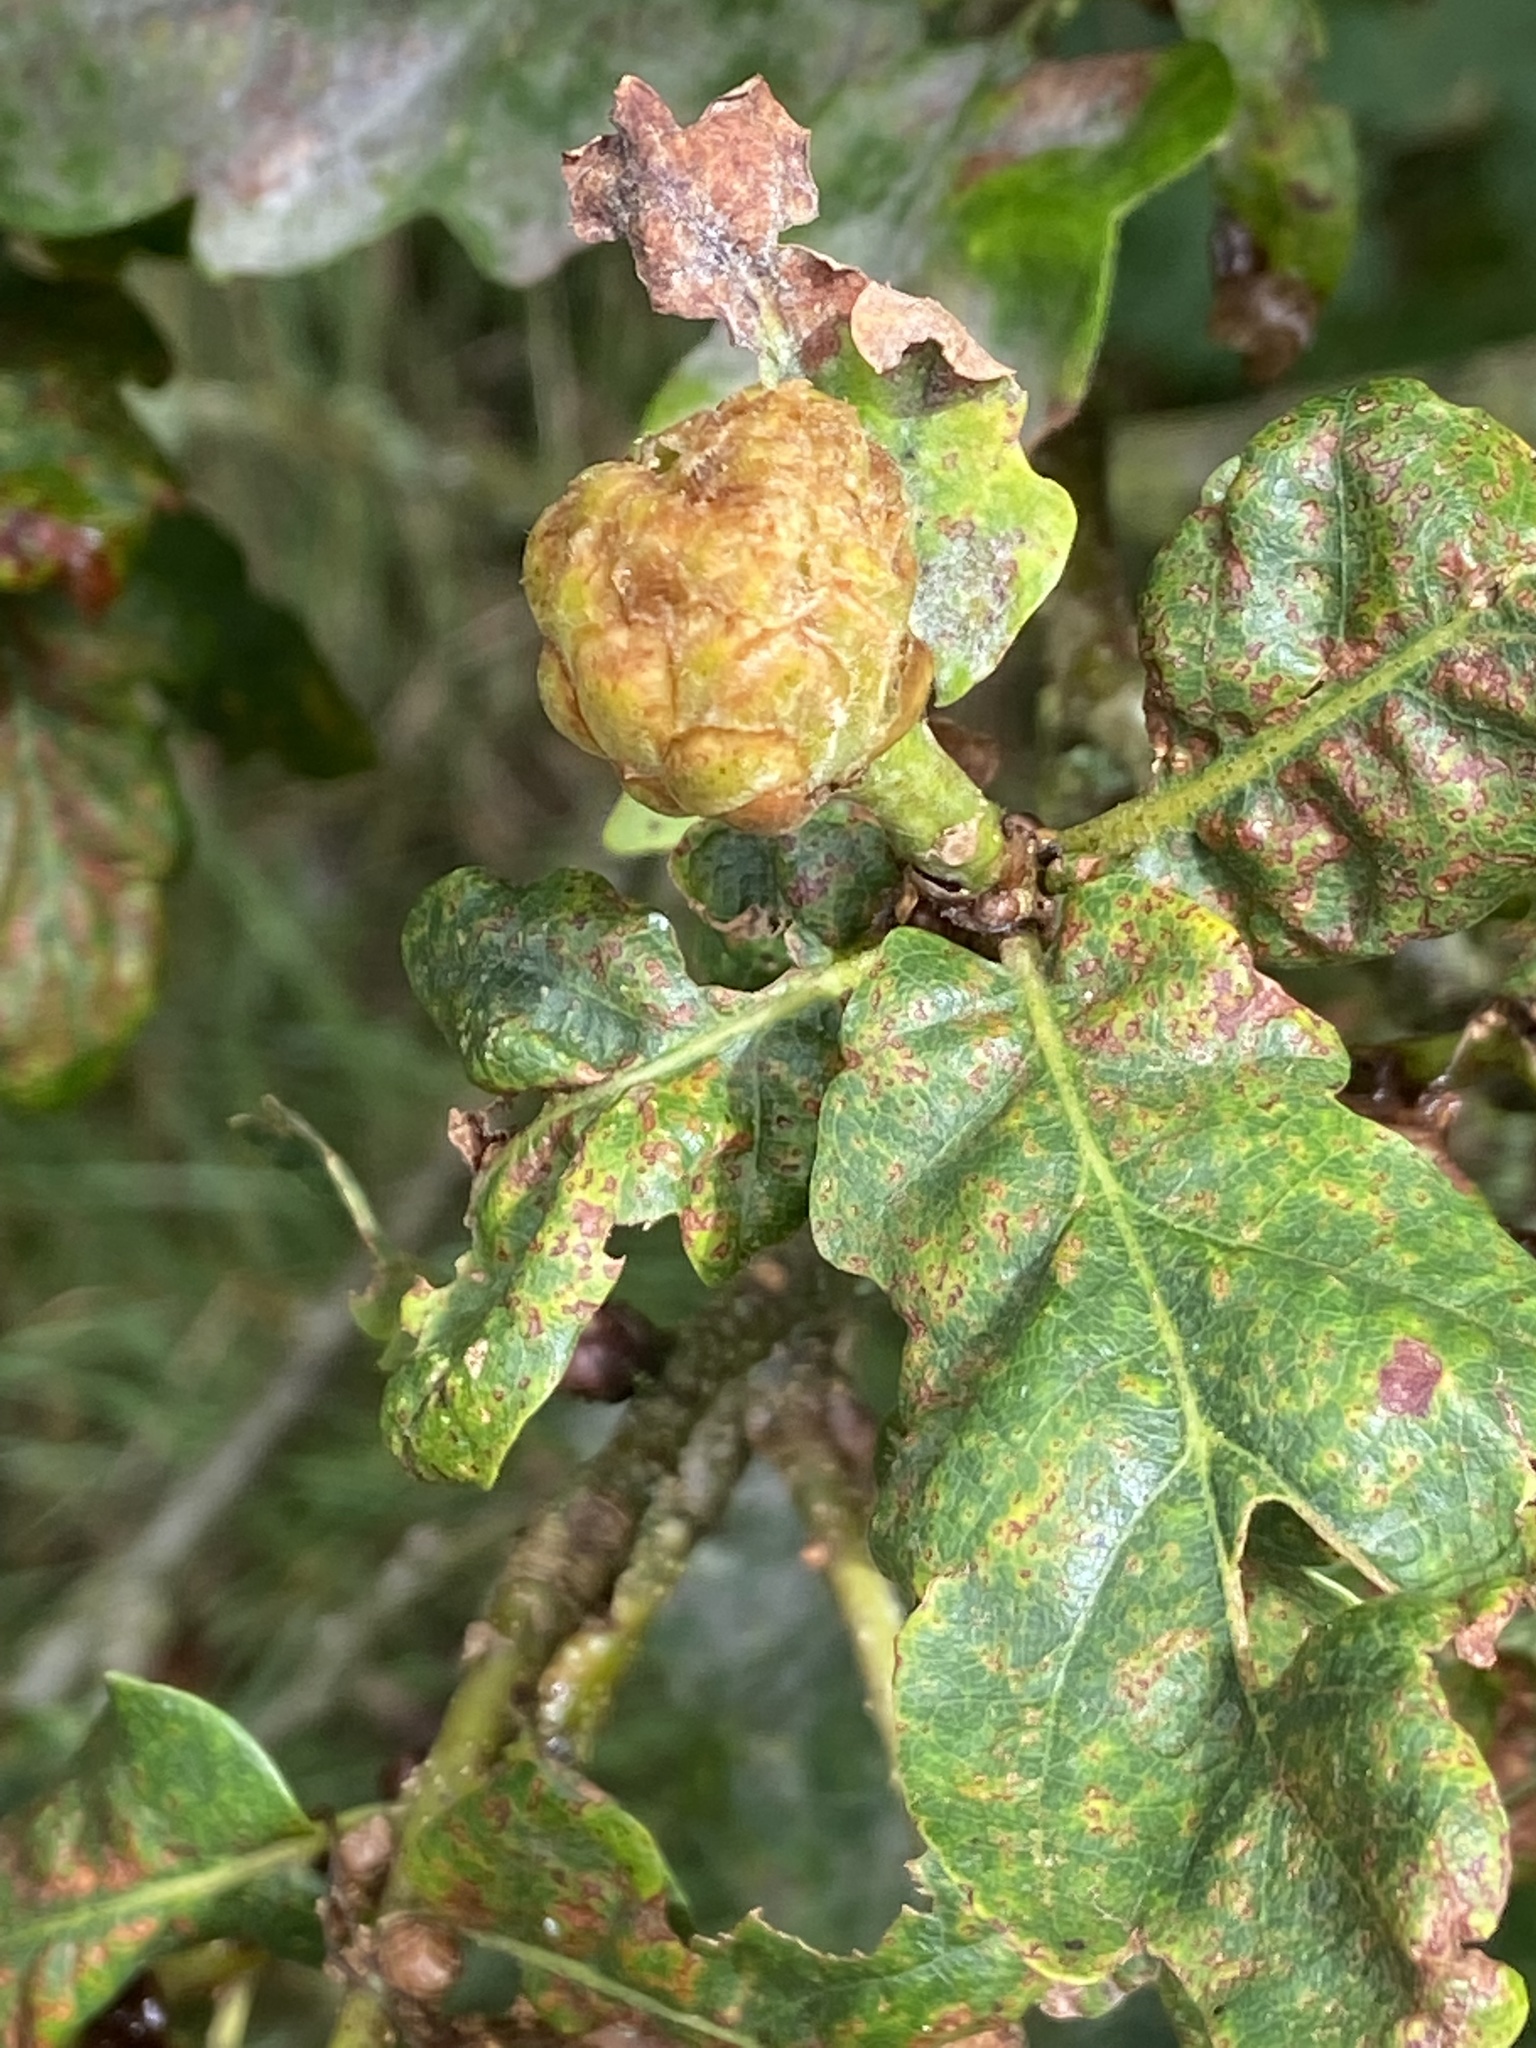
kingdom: Animalia
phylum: Arthropoda
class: Insecta
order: Hymenoptera
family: Cynipidae
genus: Andricus
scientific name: Andricus foecundatrix
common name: Artichoke gall
